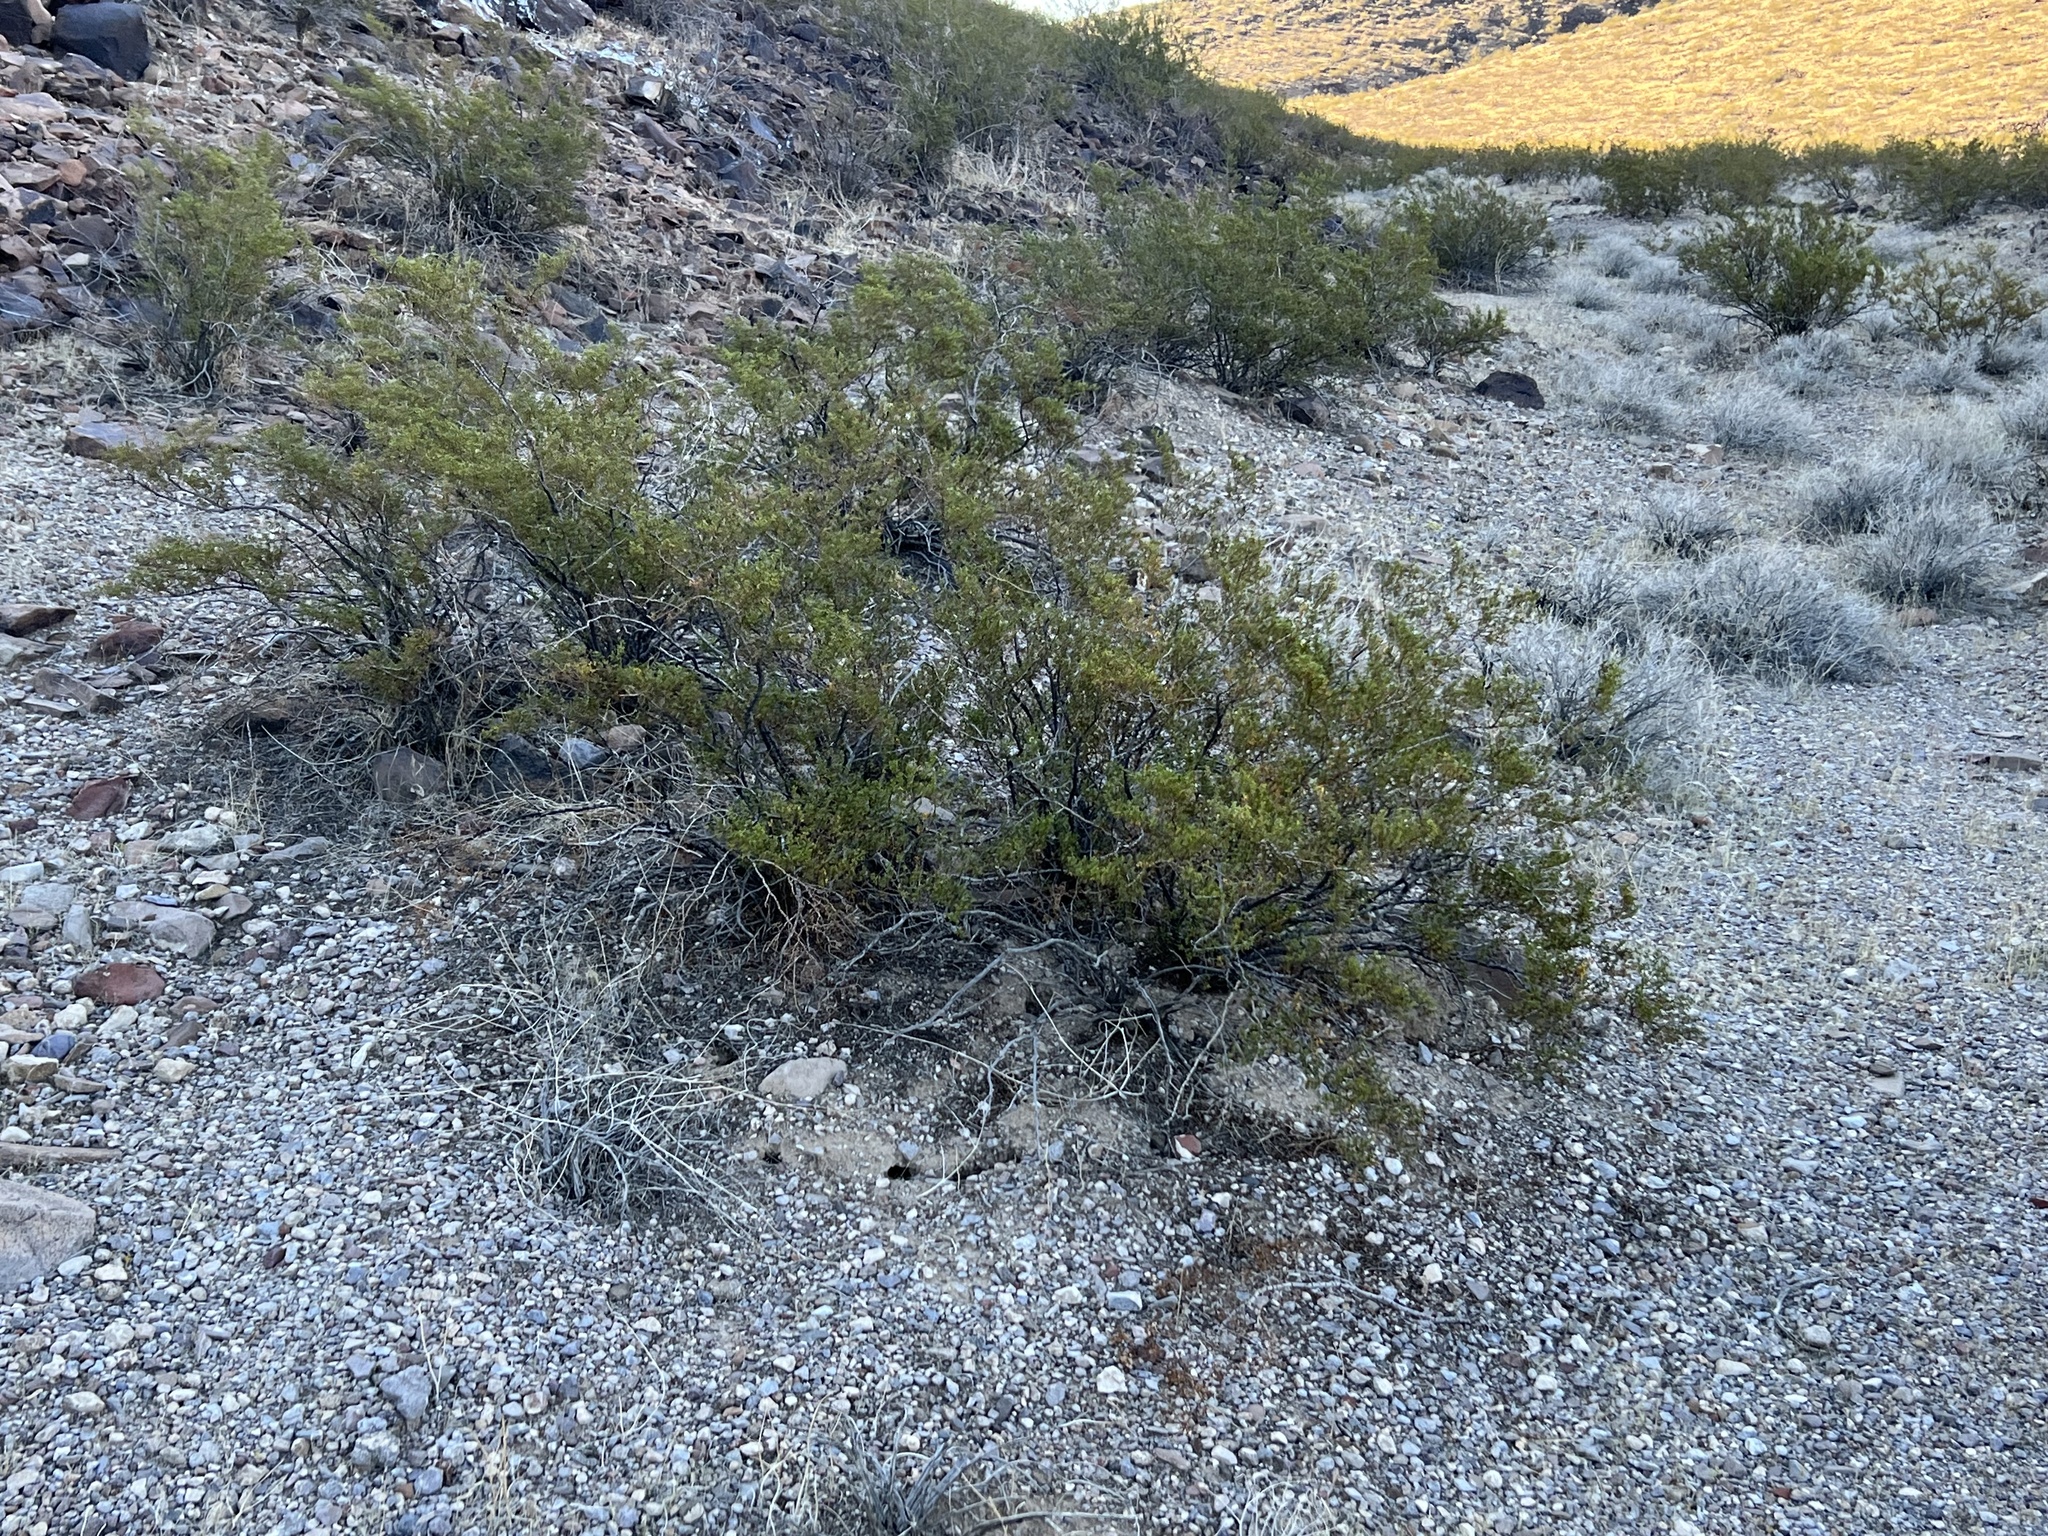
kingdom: Plantae
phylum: Tracheophyta
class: Magnoliopsida
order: Zygophyllales
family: Zygophyllaceae
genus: Larrea
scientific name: Larrea tridentata
